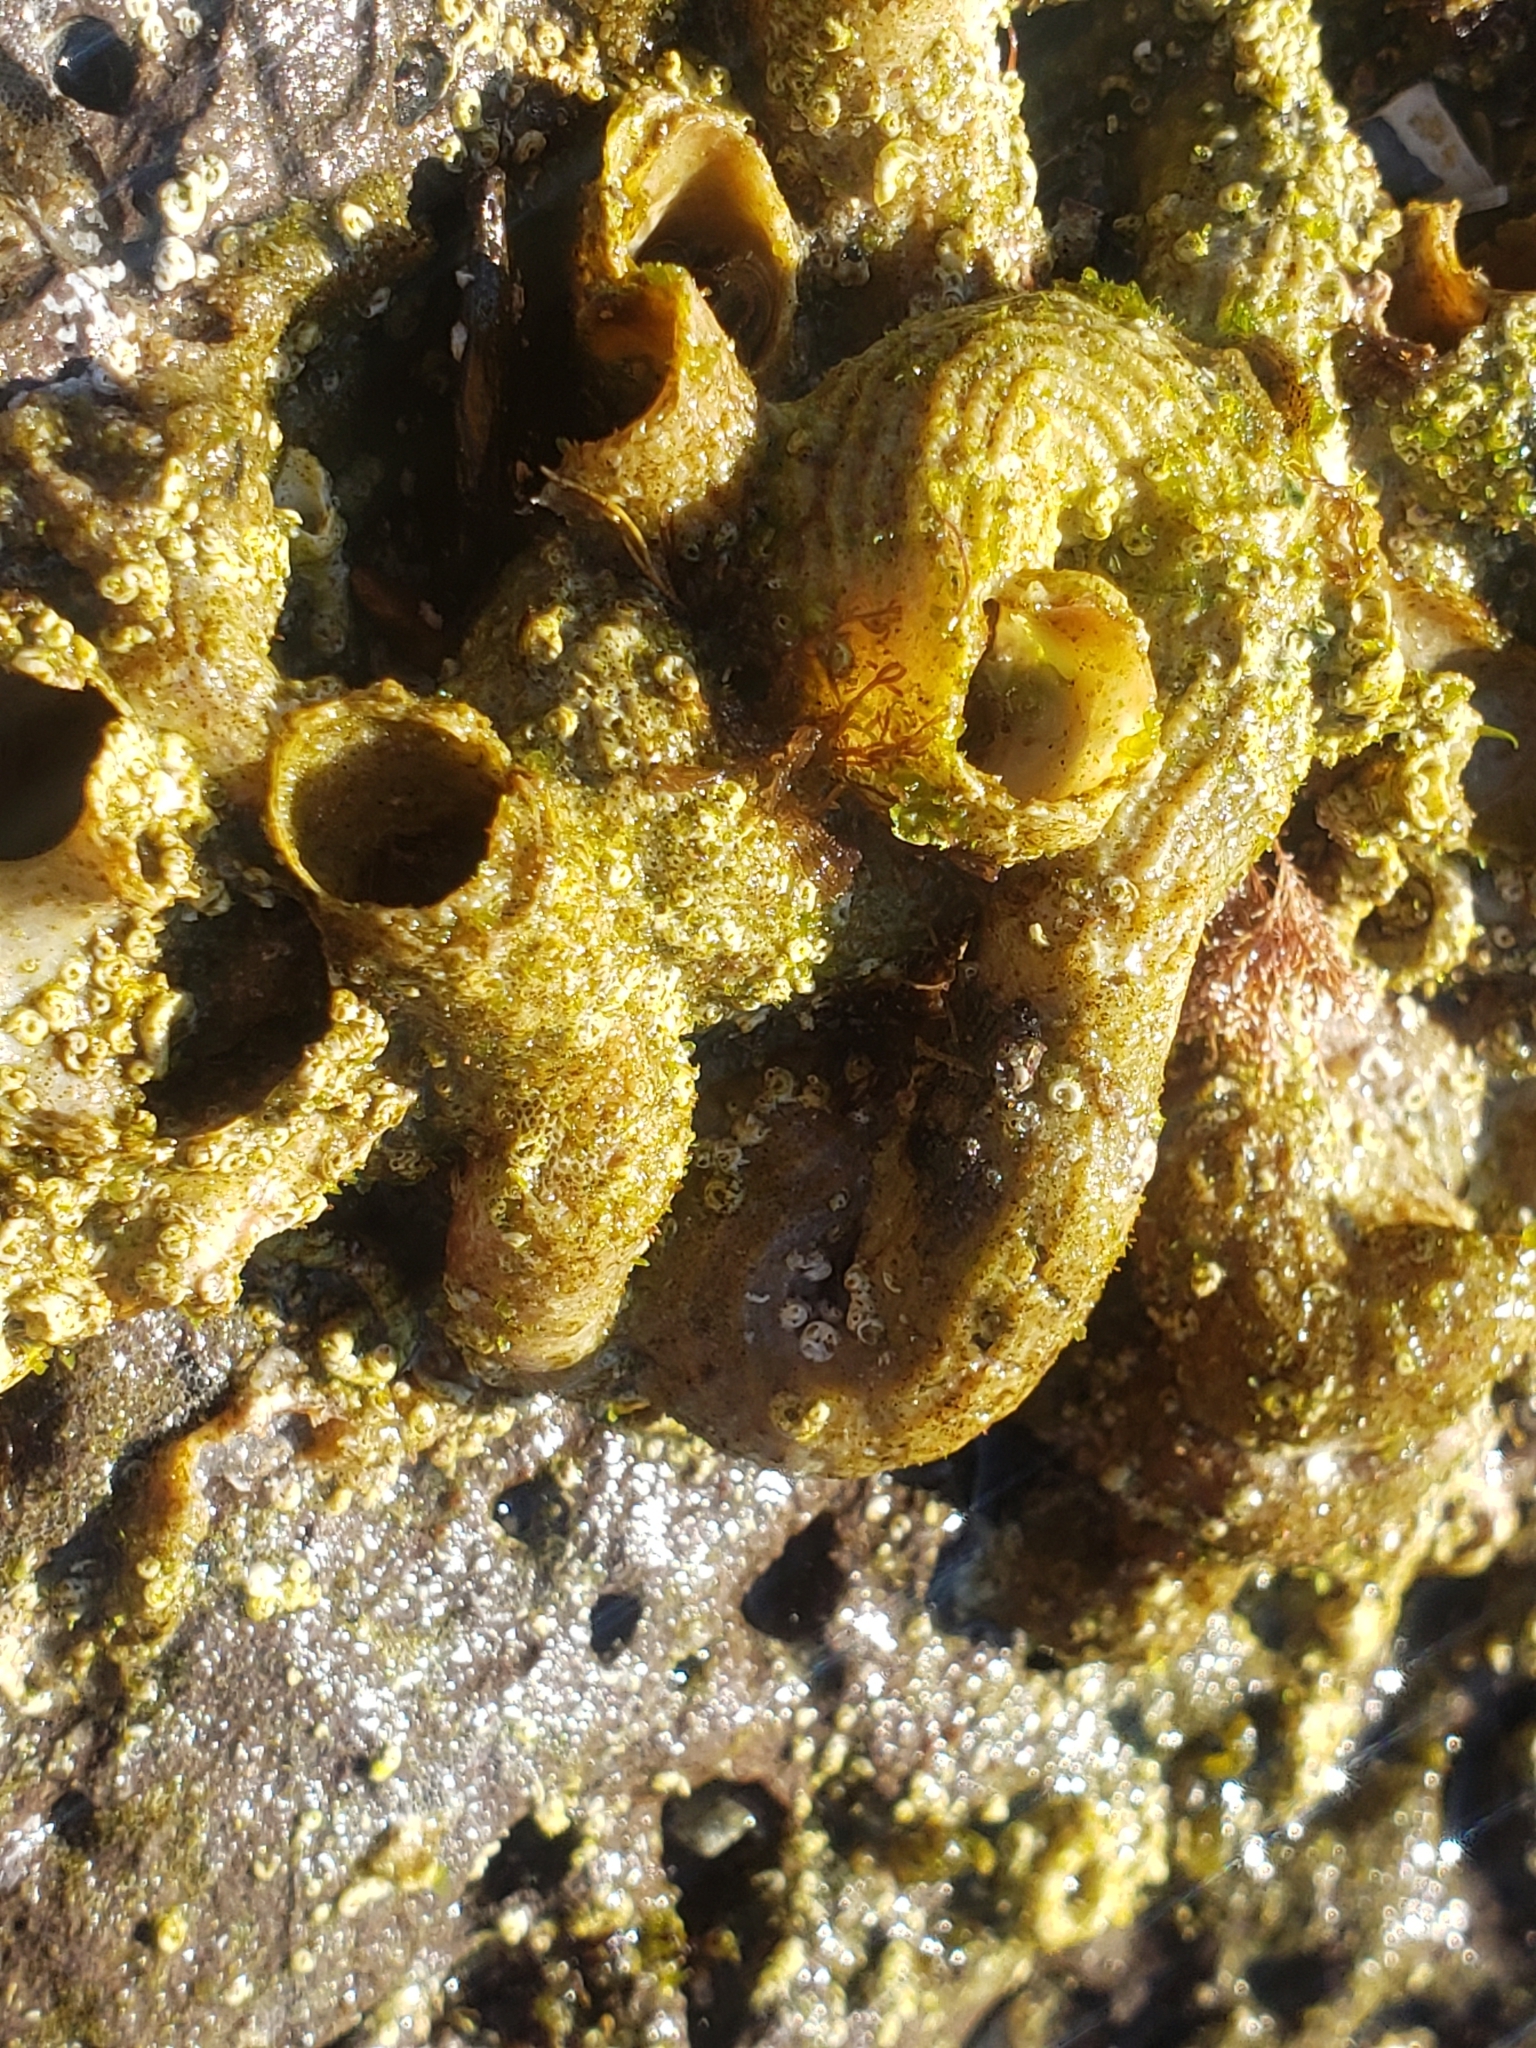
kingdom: Animalia
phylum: Mollusca
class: Gastropoda
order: Littorinimorpha
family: Vermetidae
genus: Thylacodes
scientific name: Thylacodes squamigerus
